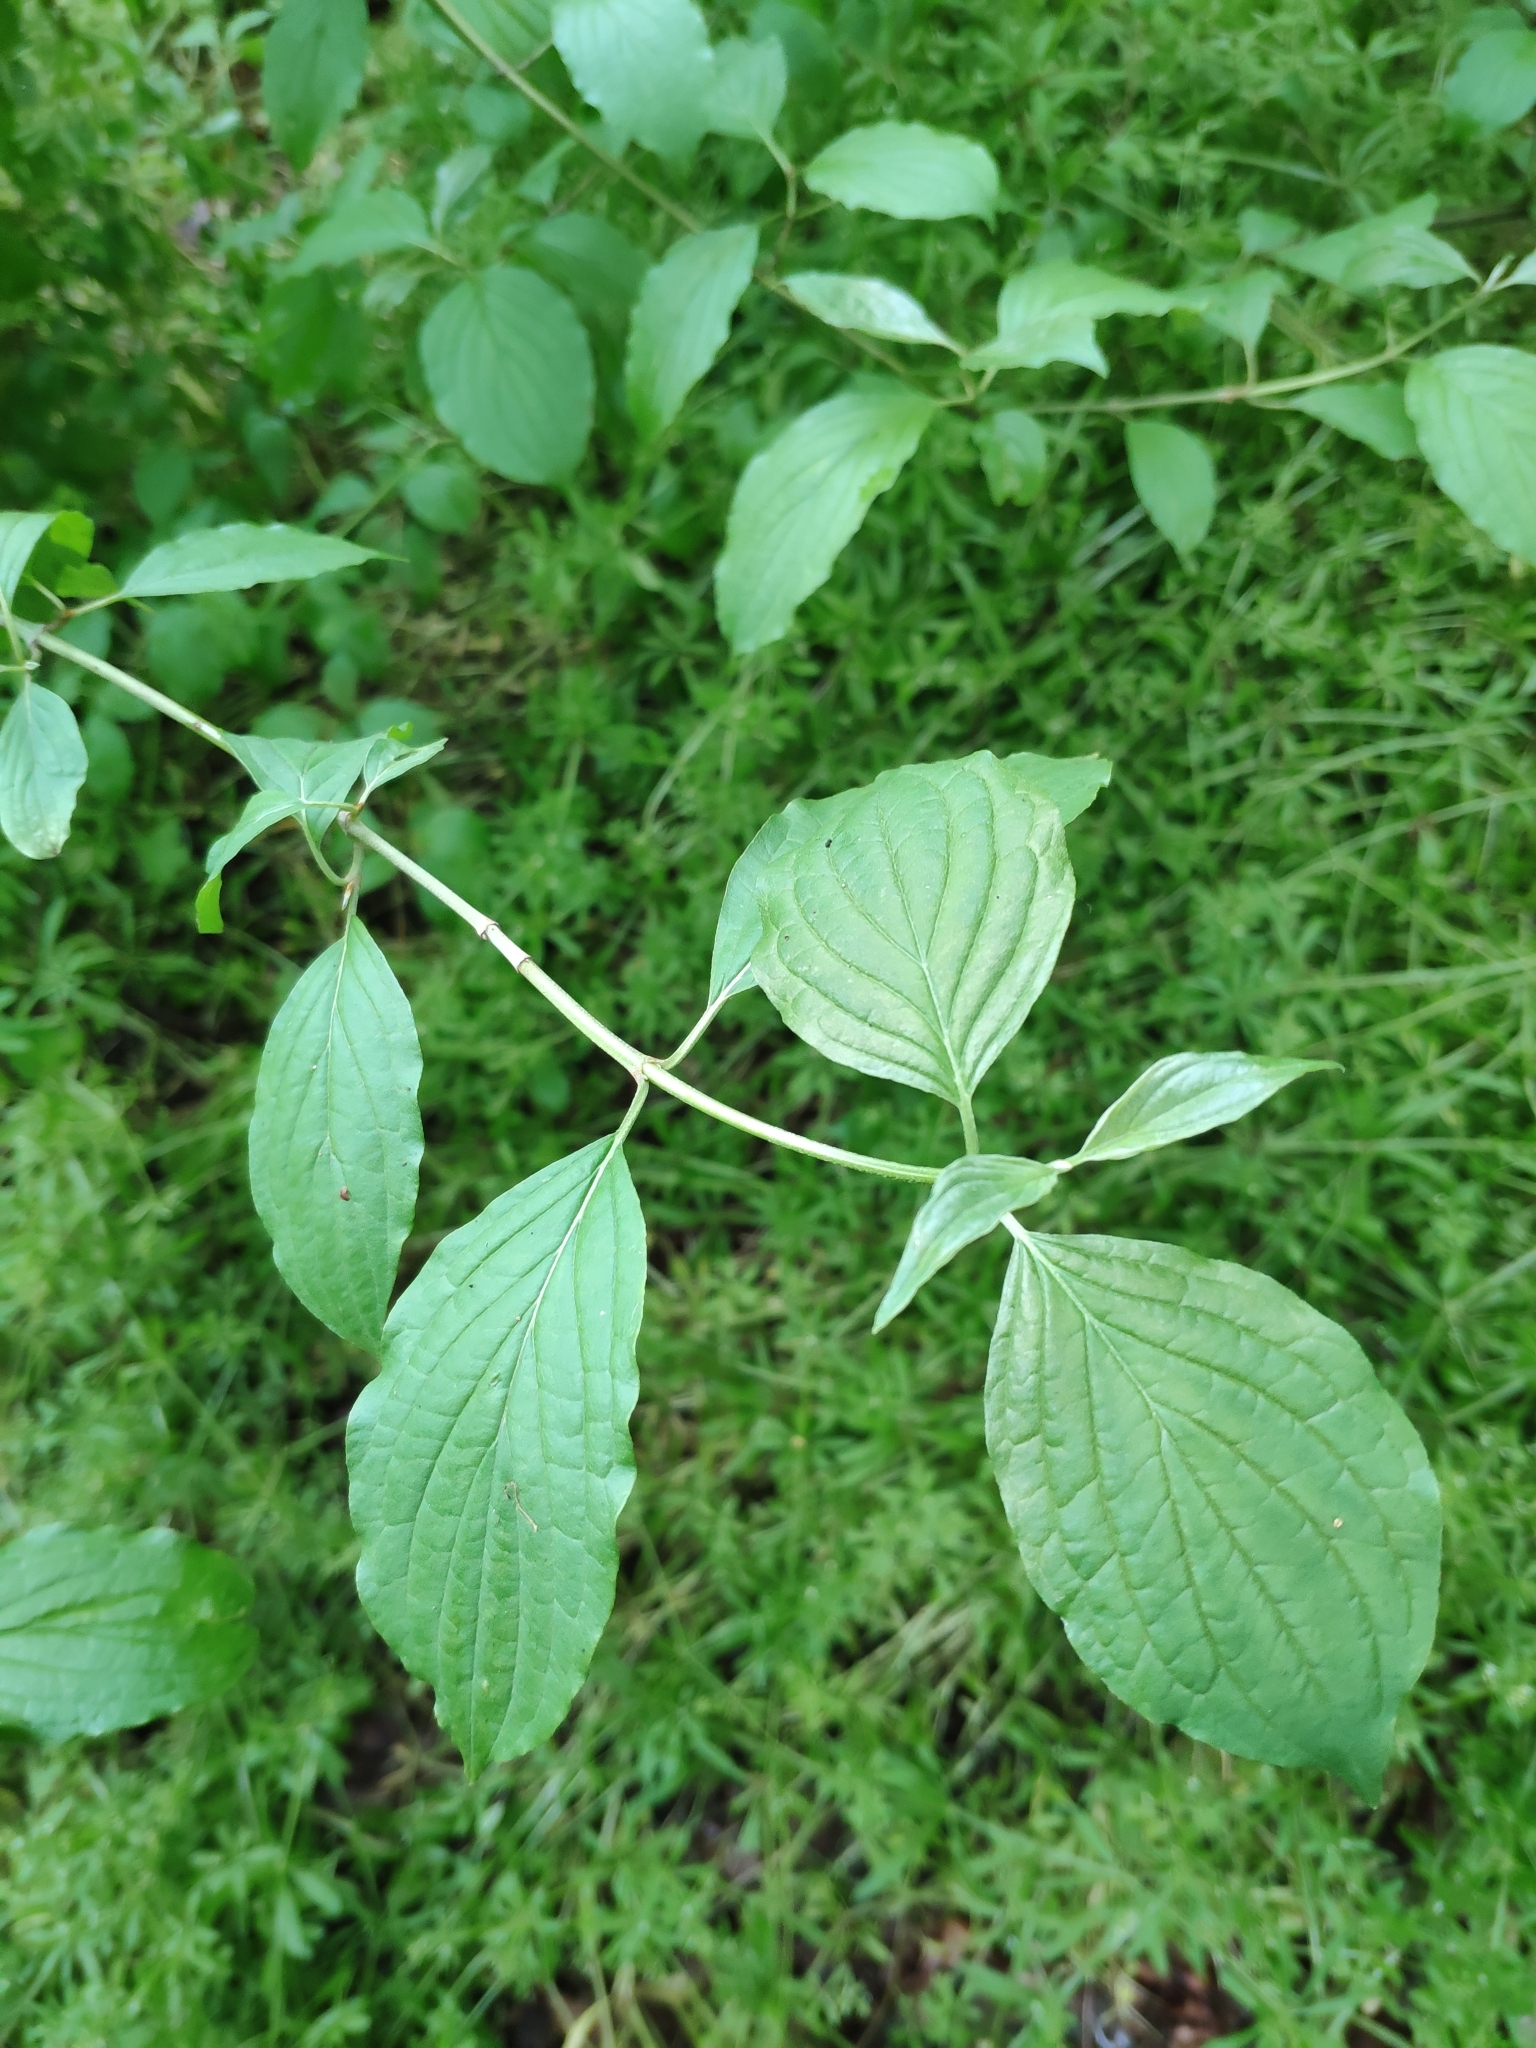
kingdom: Plantae
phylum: Tracheophyta
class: Magnoliopsida
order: Cornales
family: Cornaceae
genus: Cornus
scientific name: Cornus sanguinea
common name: Dogwood
